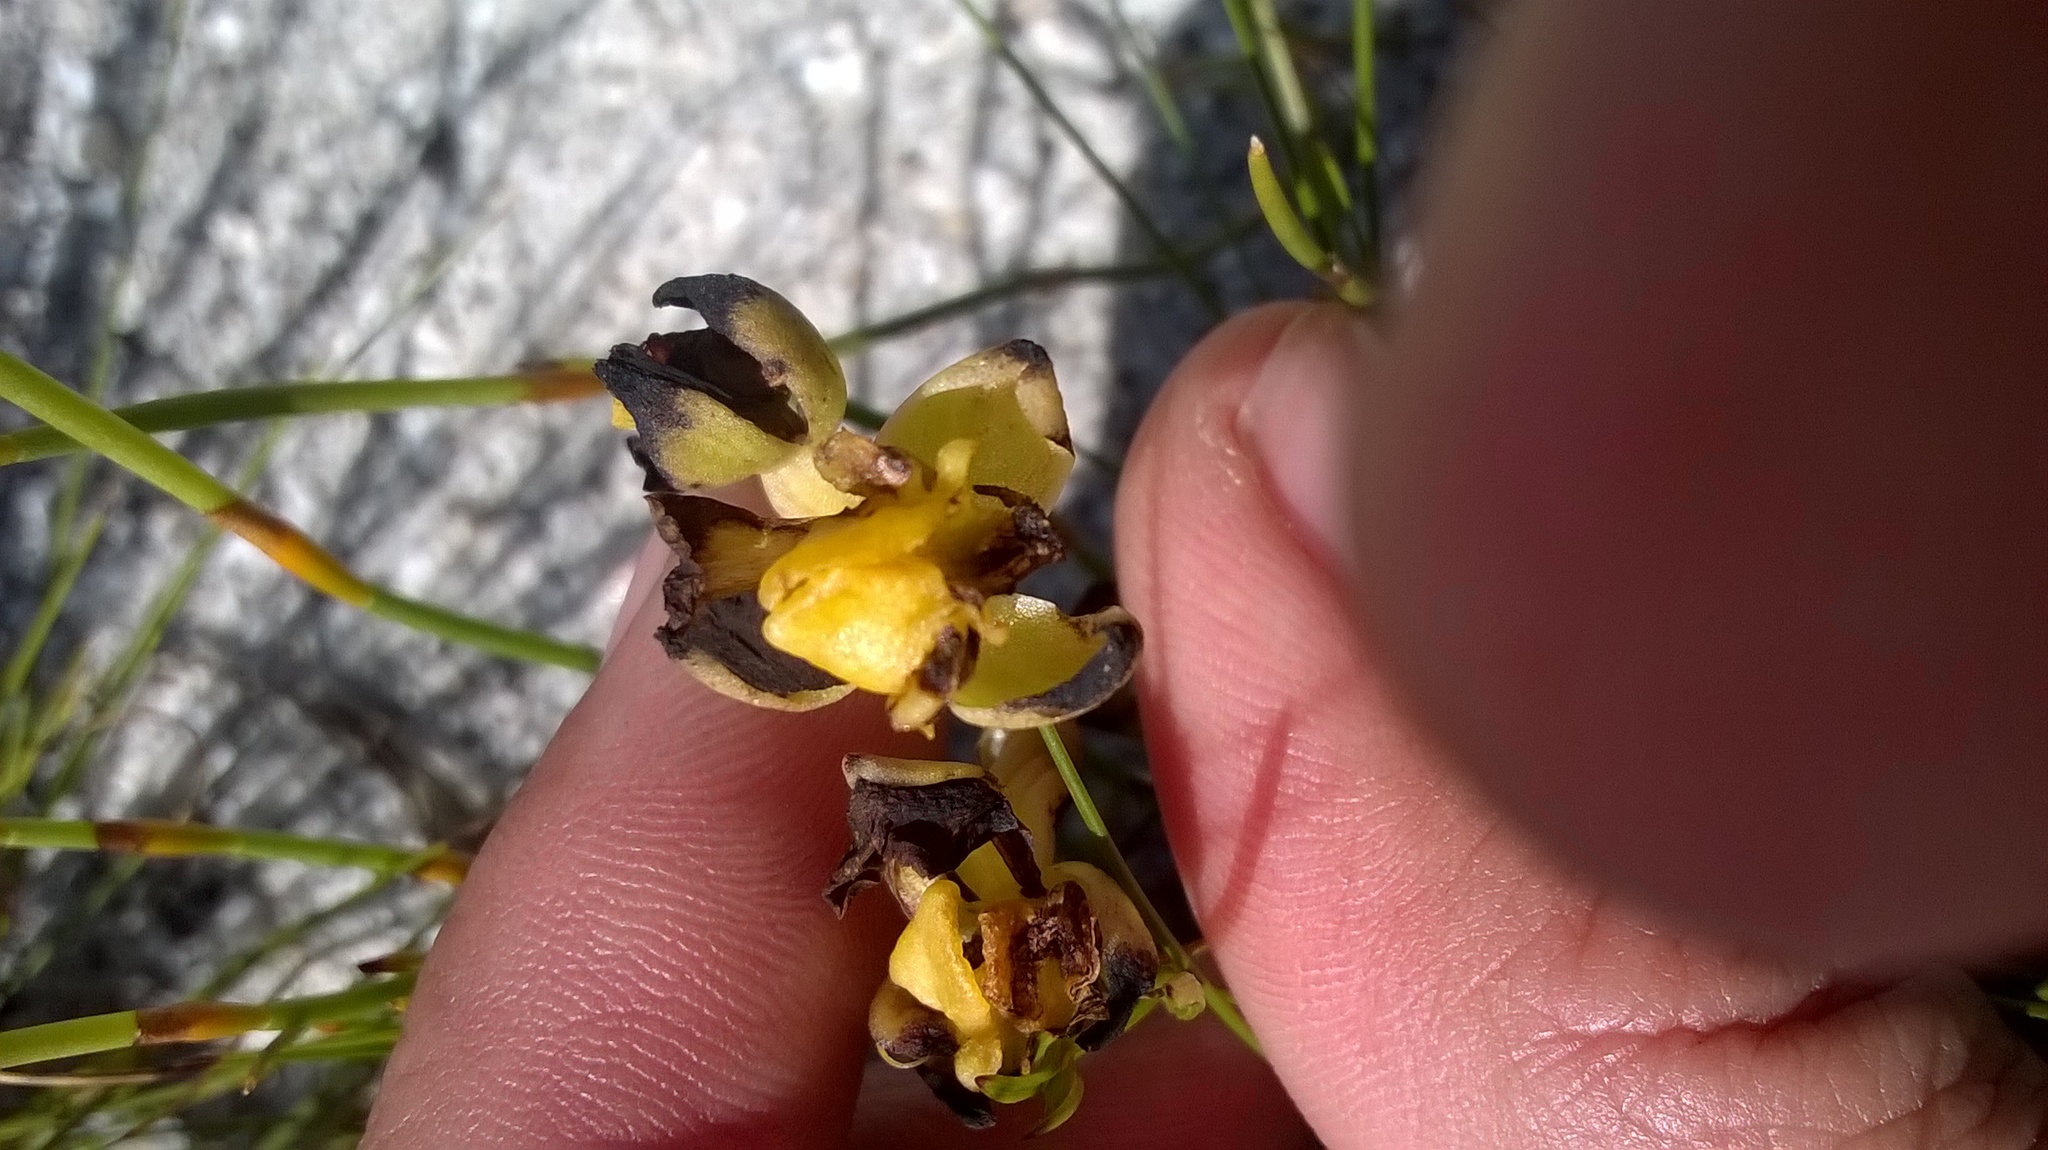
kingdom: Plantae
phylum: Tracheophyta
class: Liliopsida
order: Asparagales
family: Orchidaceae
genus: Ceratandra
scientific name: Ceratandra harveyana
